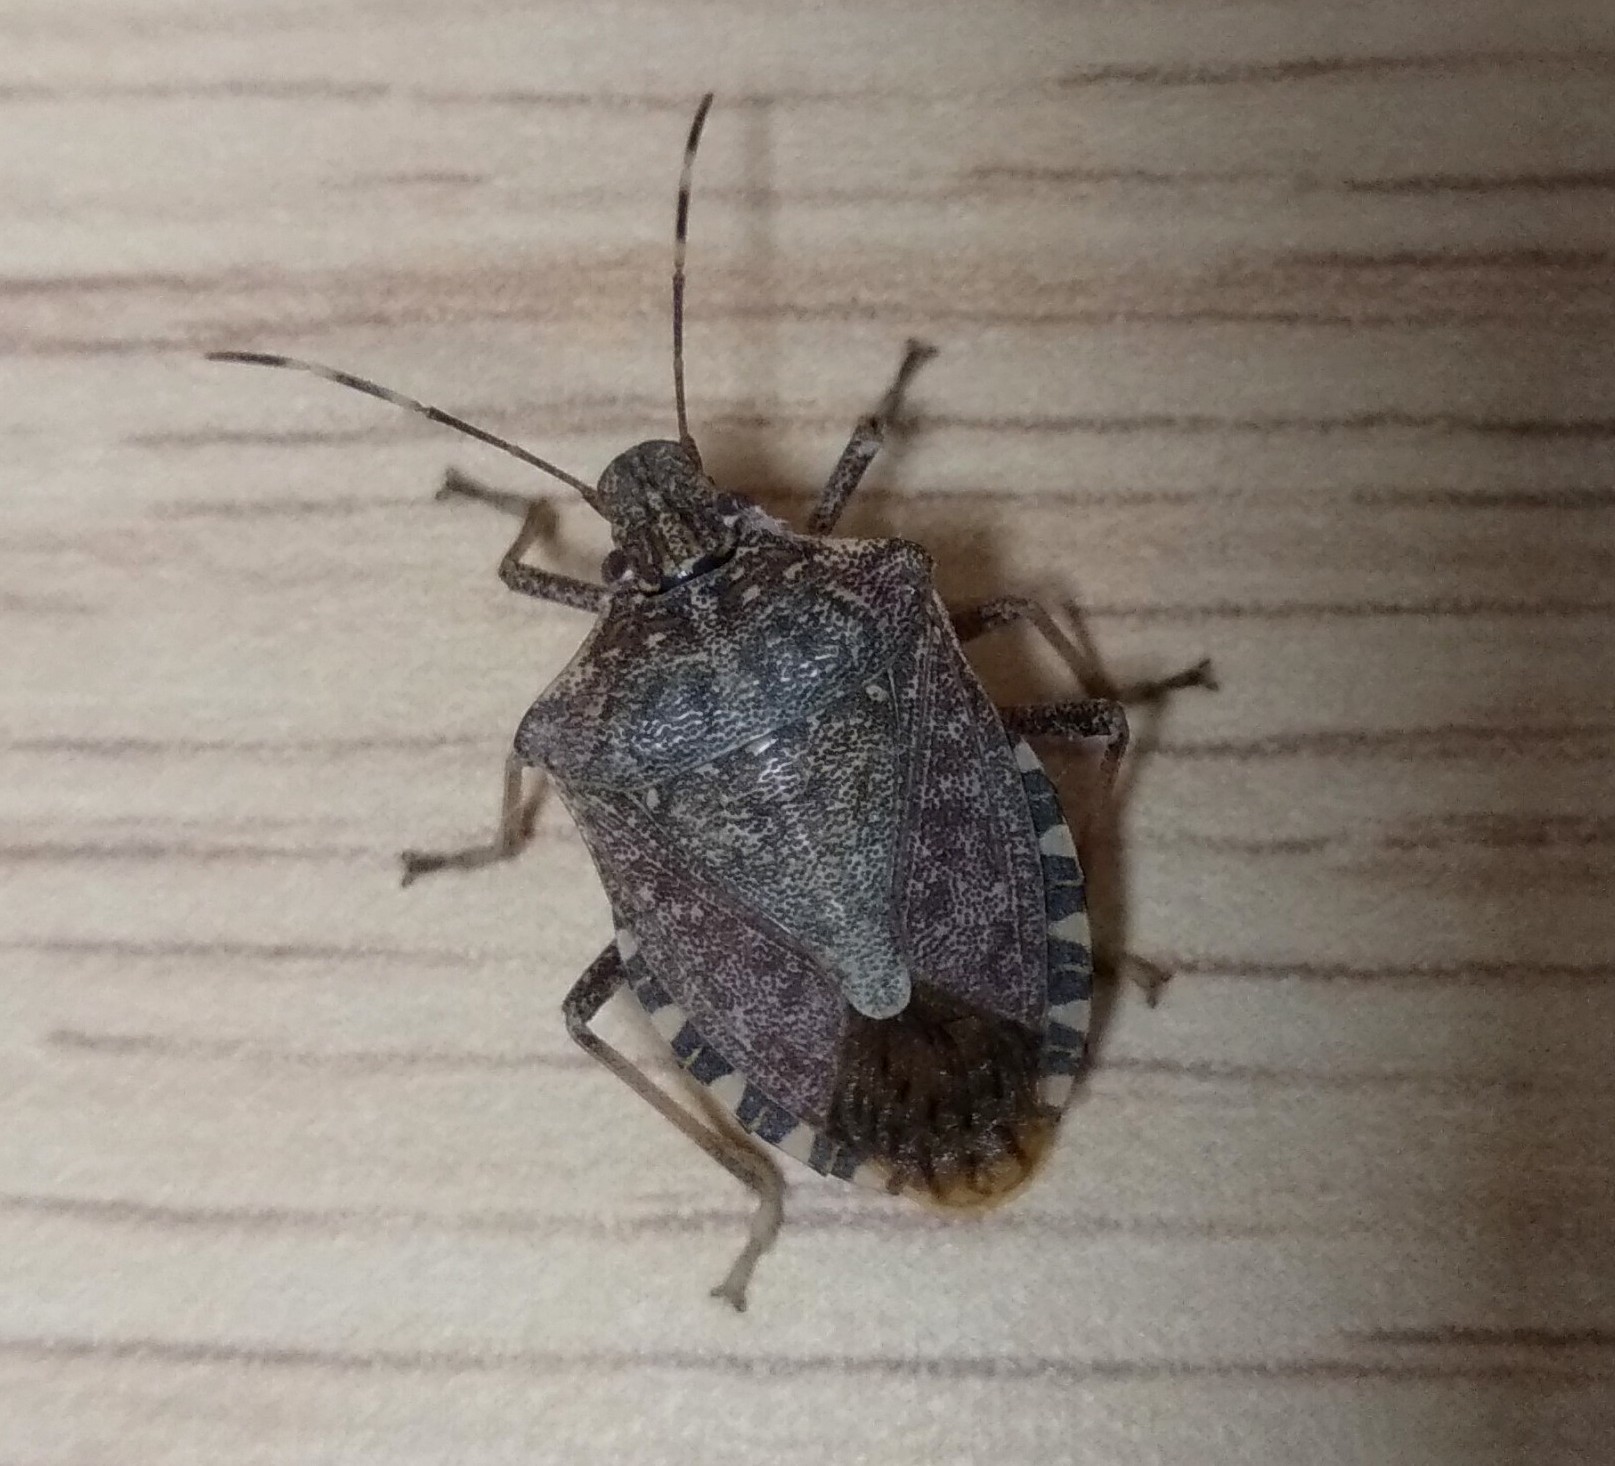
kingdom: Animalia
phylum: Arthropoda
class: Insecta
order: Hemiptera
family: Pentatomidae
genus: Halyomorpha
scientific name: Halyomorpha halys
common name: Brown marmorated stink bug
